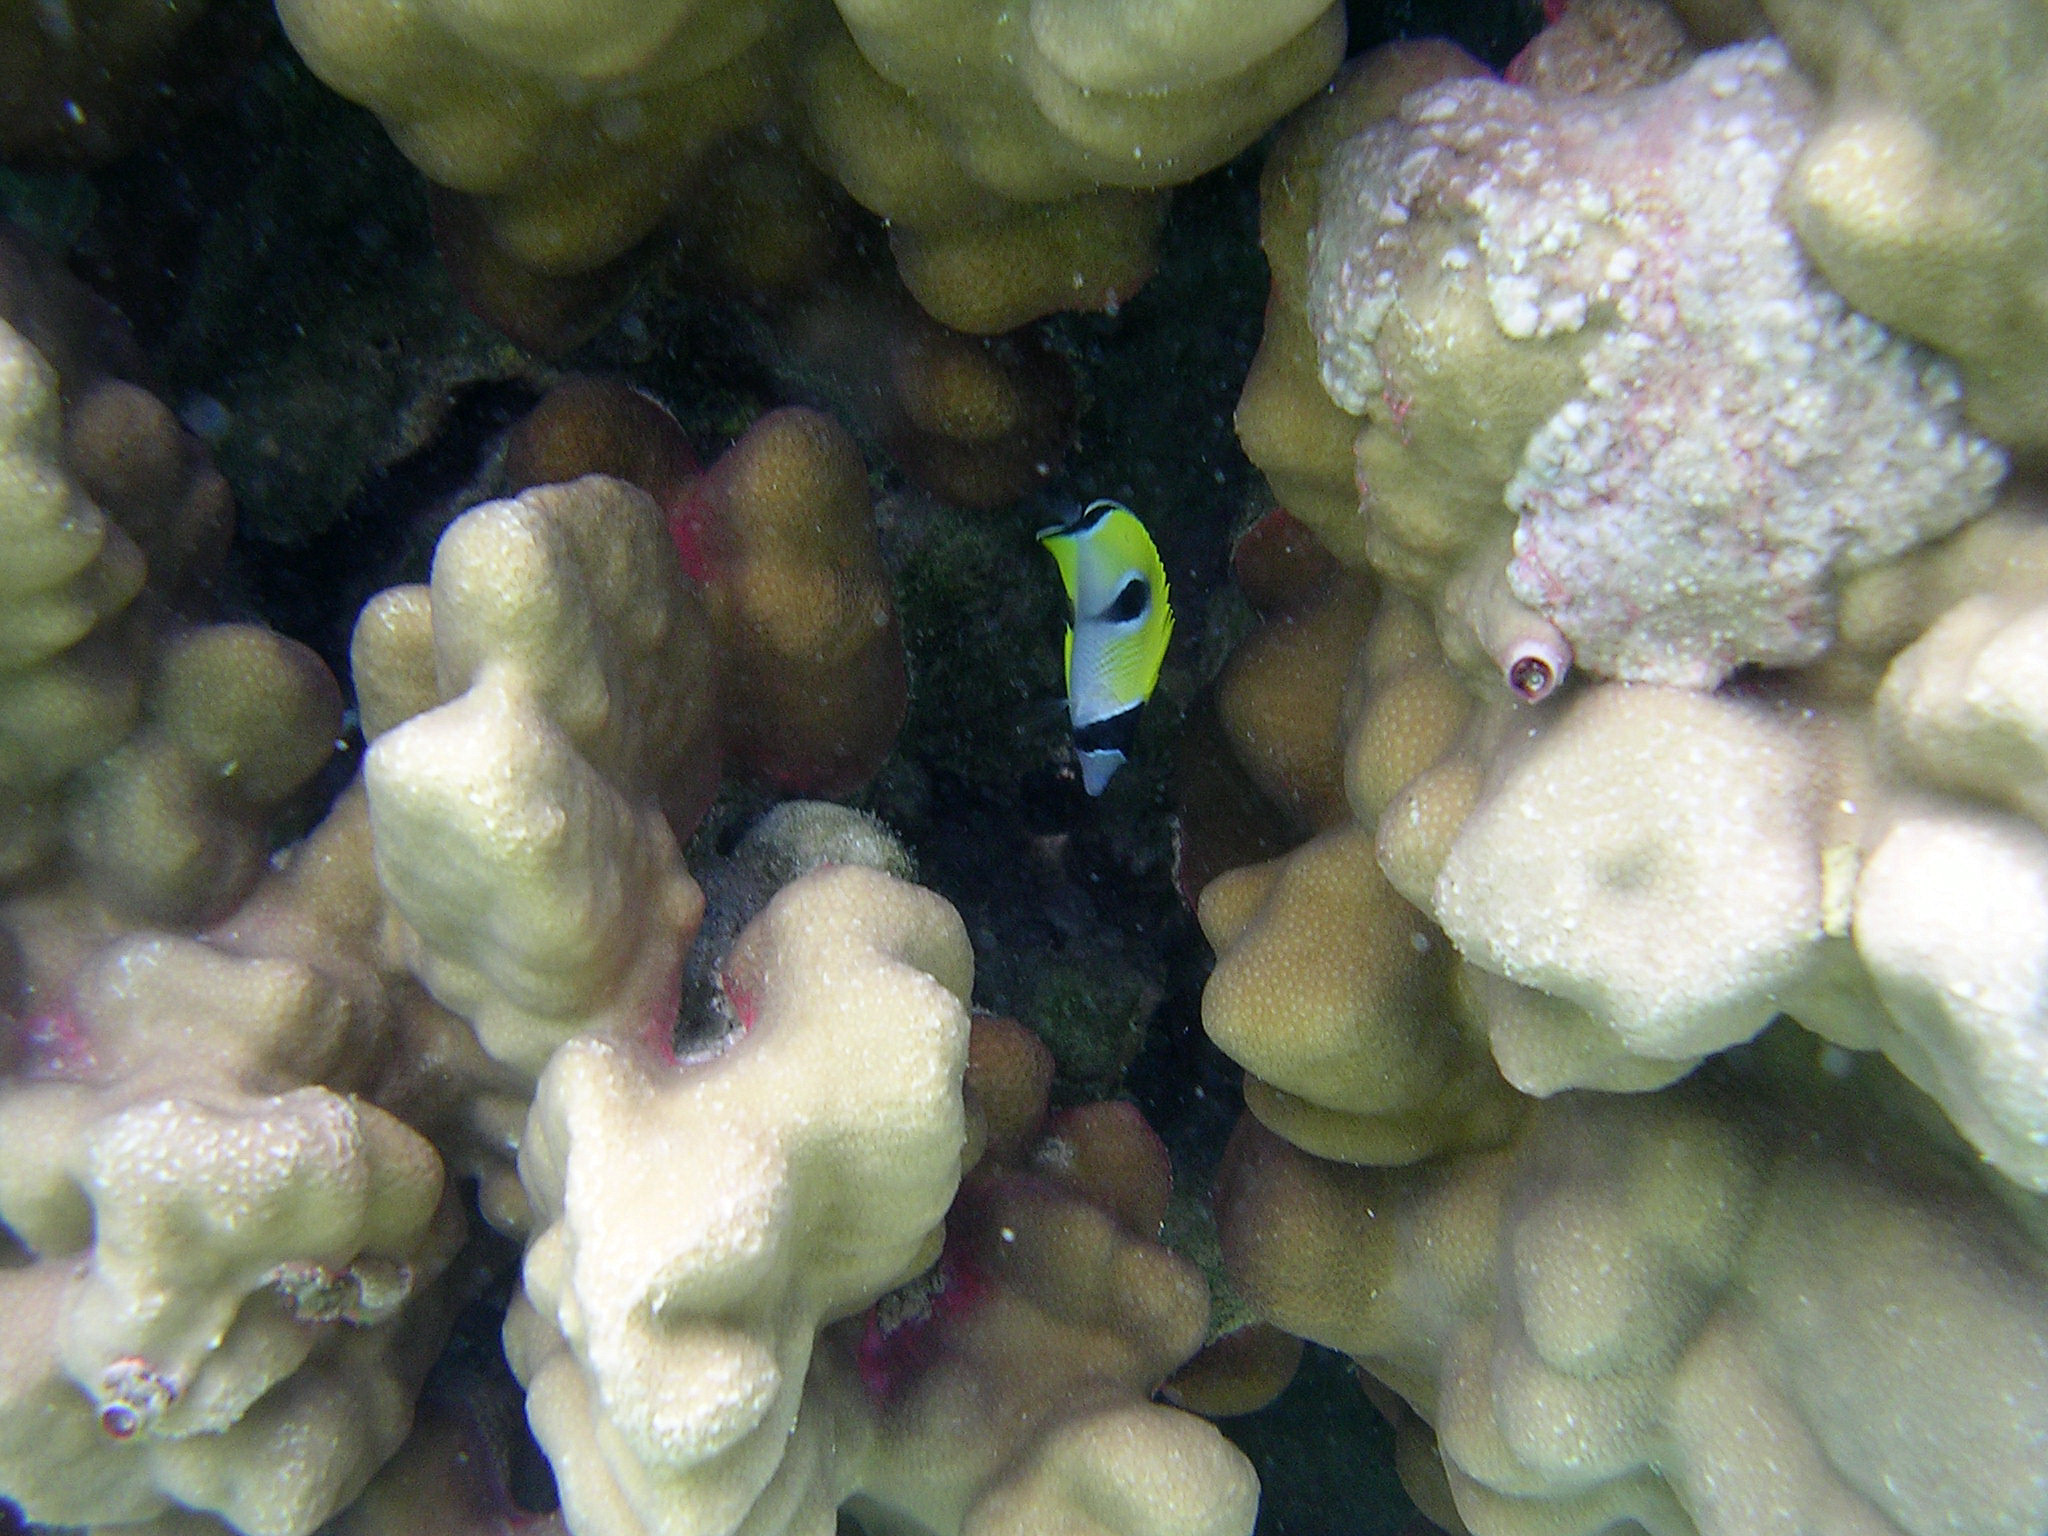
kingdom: Animalia
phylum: Chordata
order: Perciformes
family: Chaetodontidae
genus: Chaetodon
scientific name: Chaetodon unimaculatus
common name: Teardrop butterflyfish
